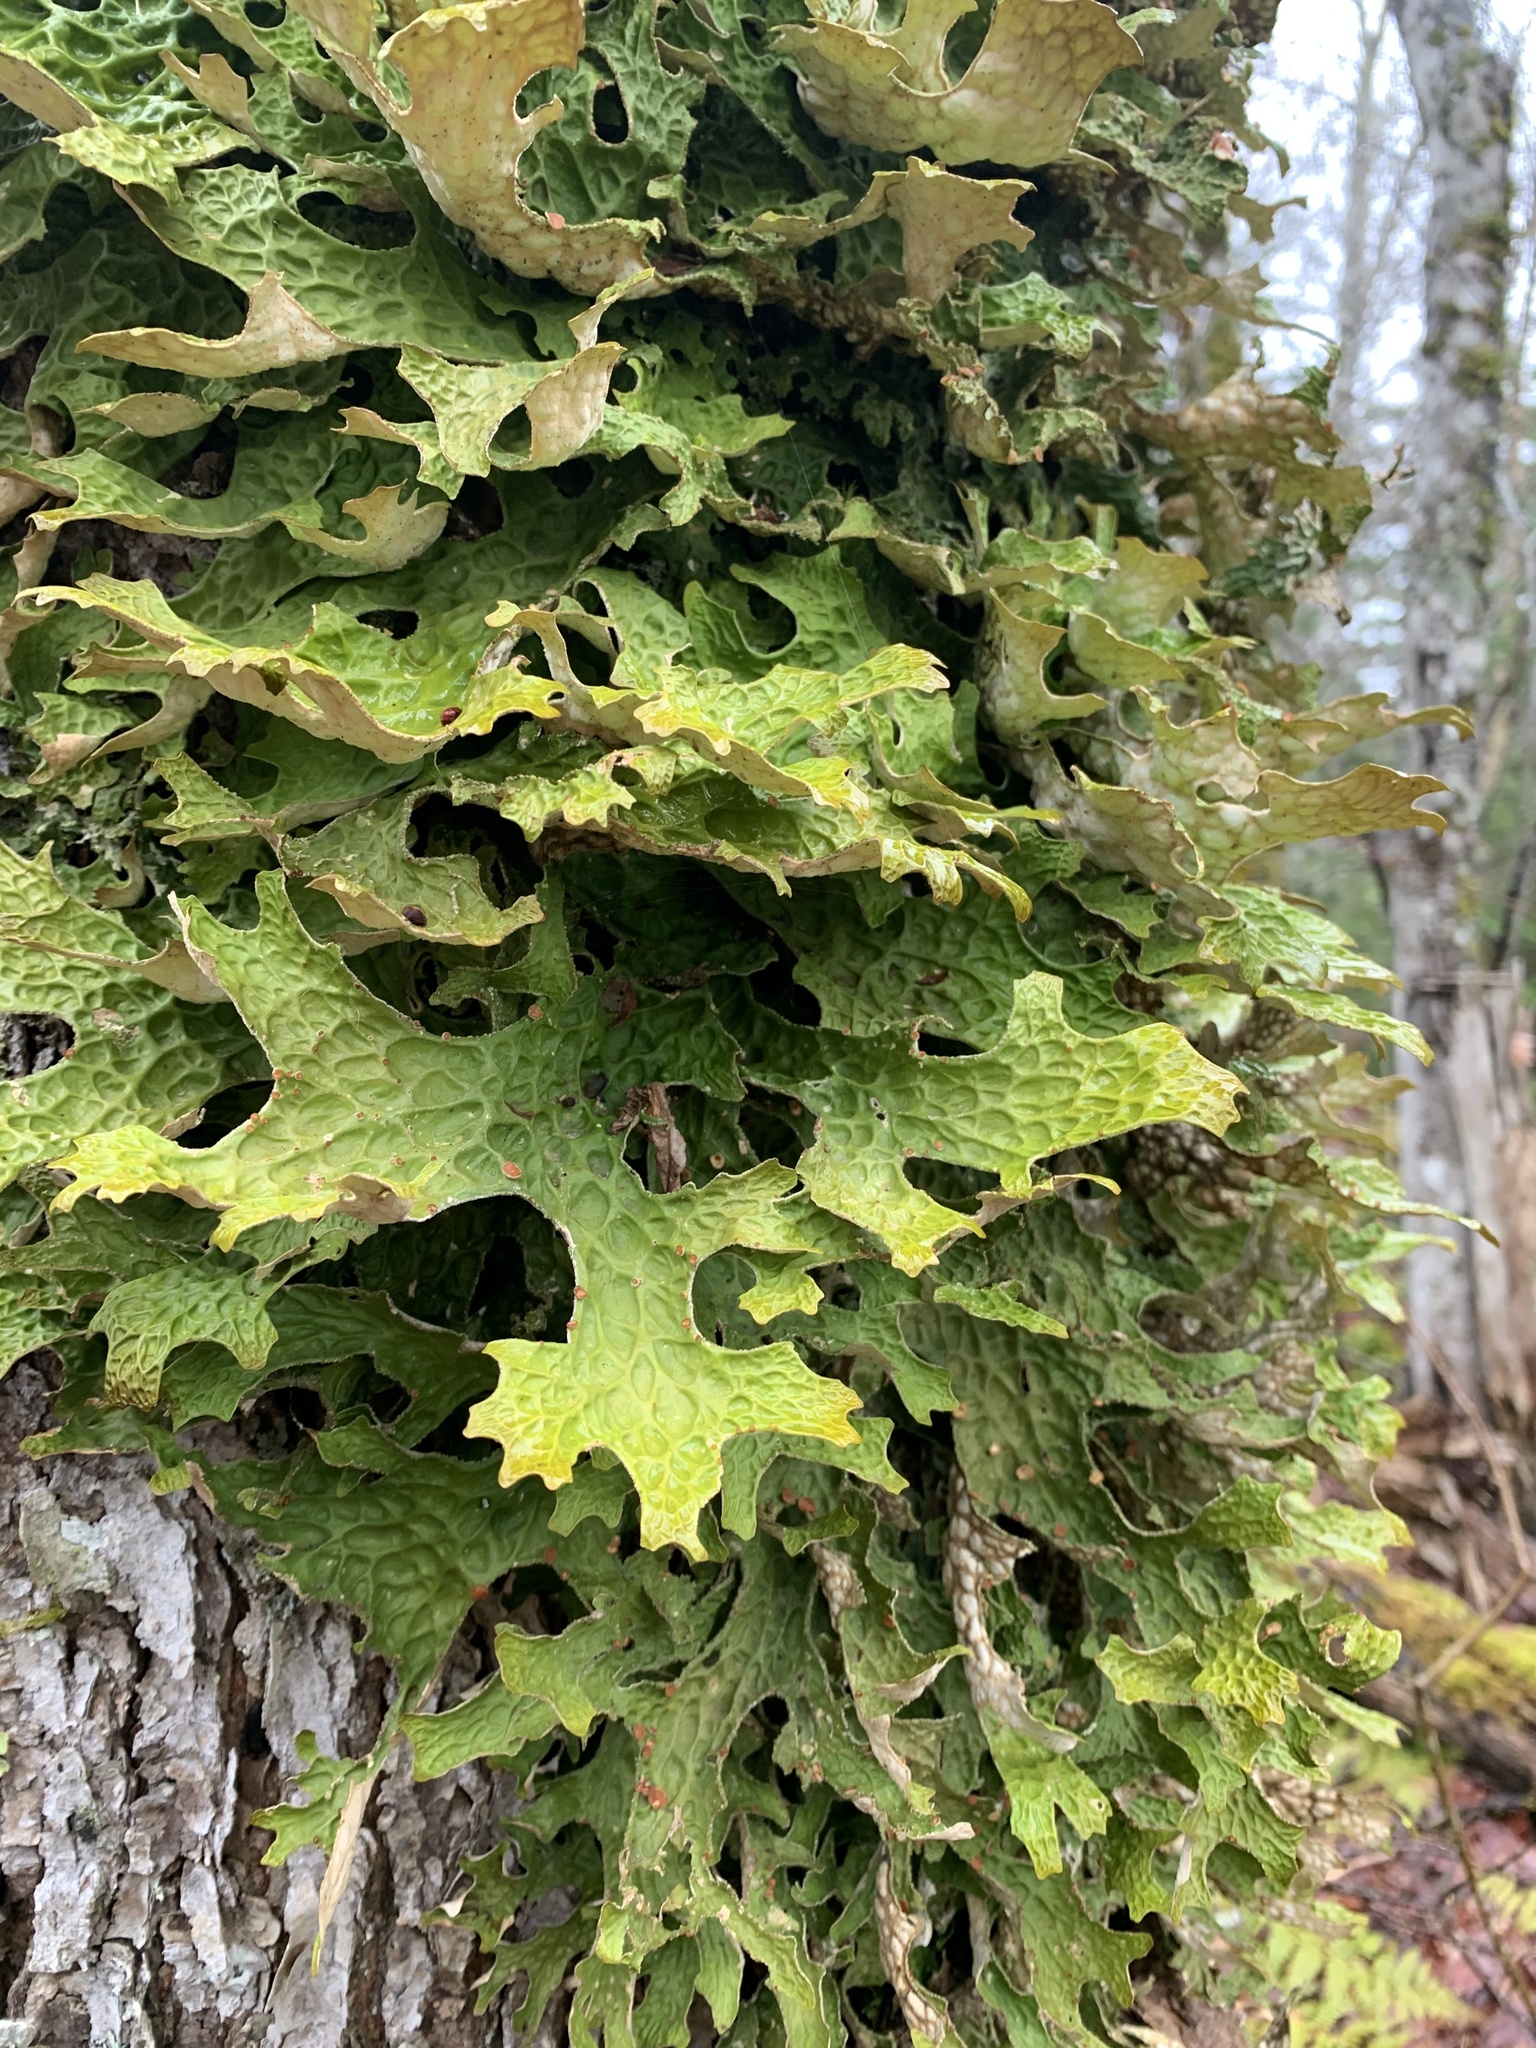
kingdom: Fungi
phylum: Ascomycota
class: Lecanoromycetes
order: Peltigerales
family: Lobariaceae
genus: Lobaria
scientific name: Lobaria pulmonaria
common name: Lungwort
